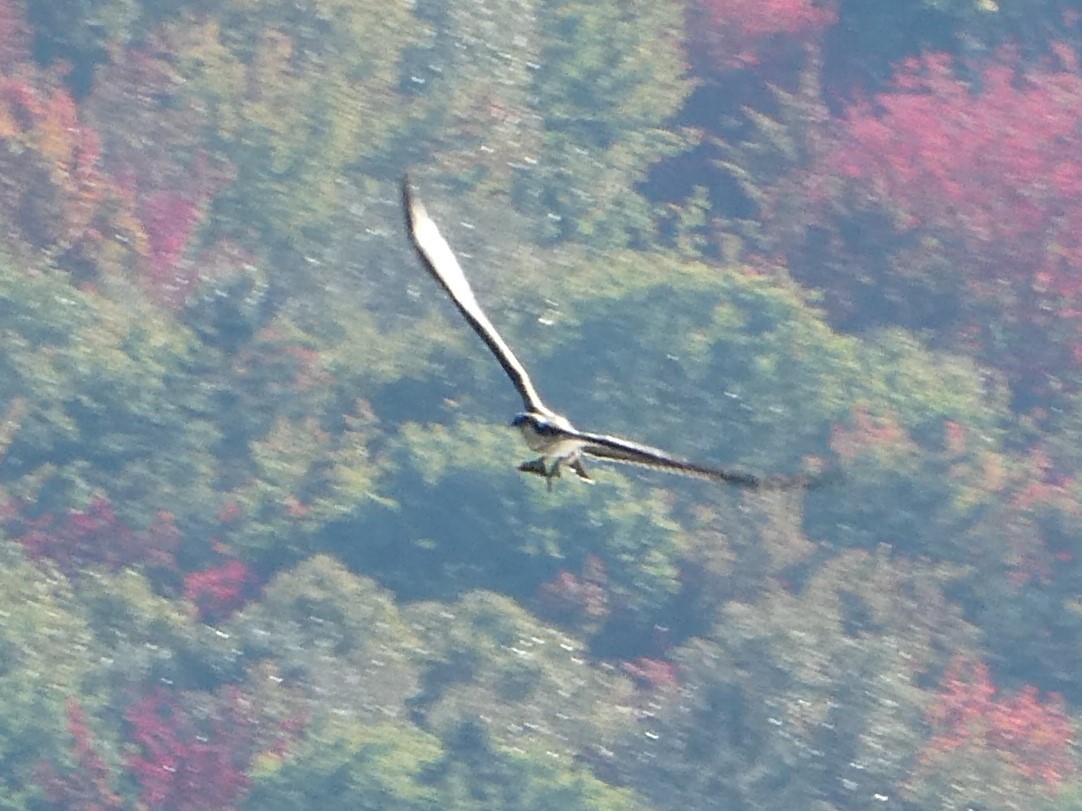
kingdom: Animalia
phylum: Chordata
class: Aves
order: Accipitriformes
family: Pandionidae
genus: Pandion
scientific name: Pandion haliaetus
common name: Osprey
